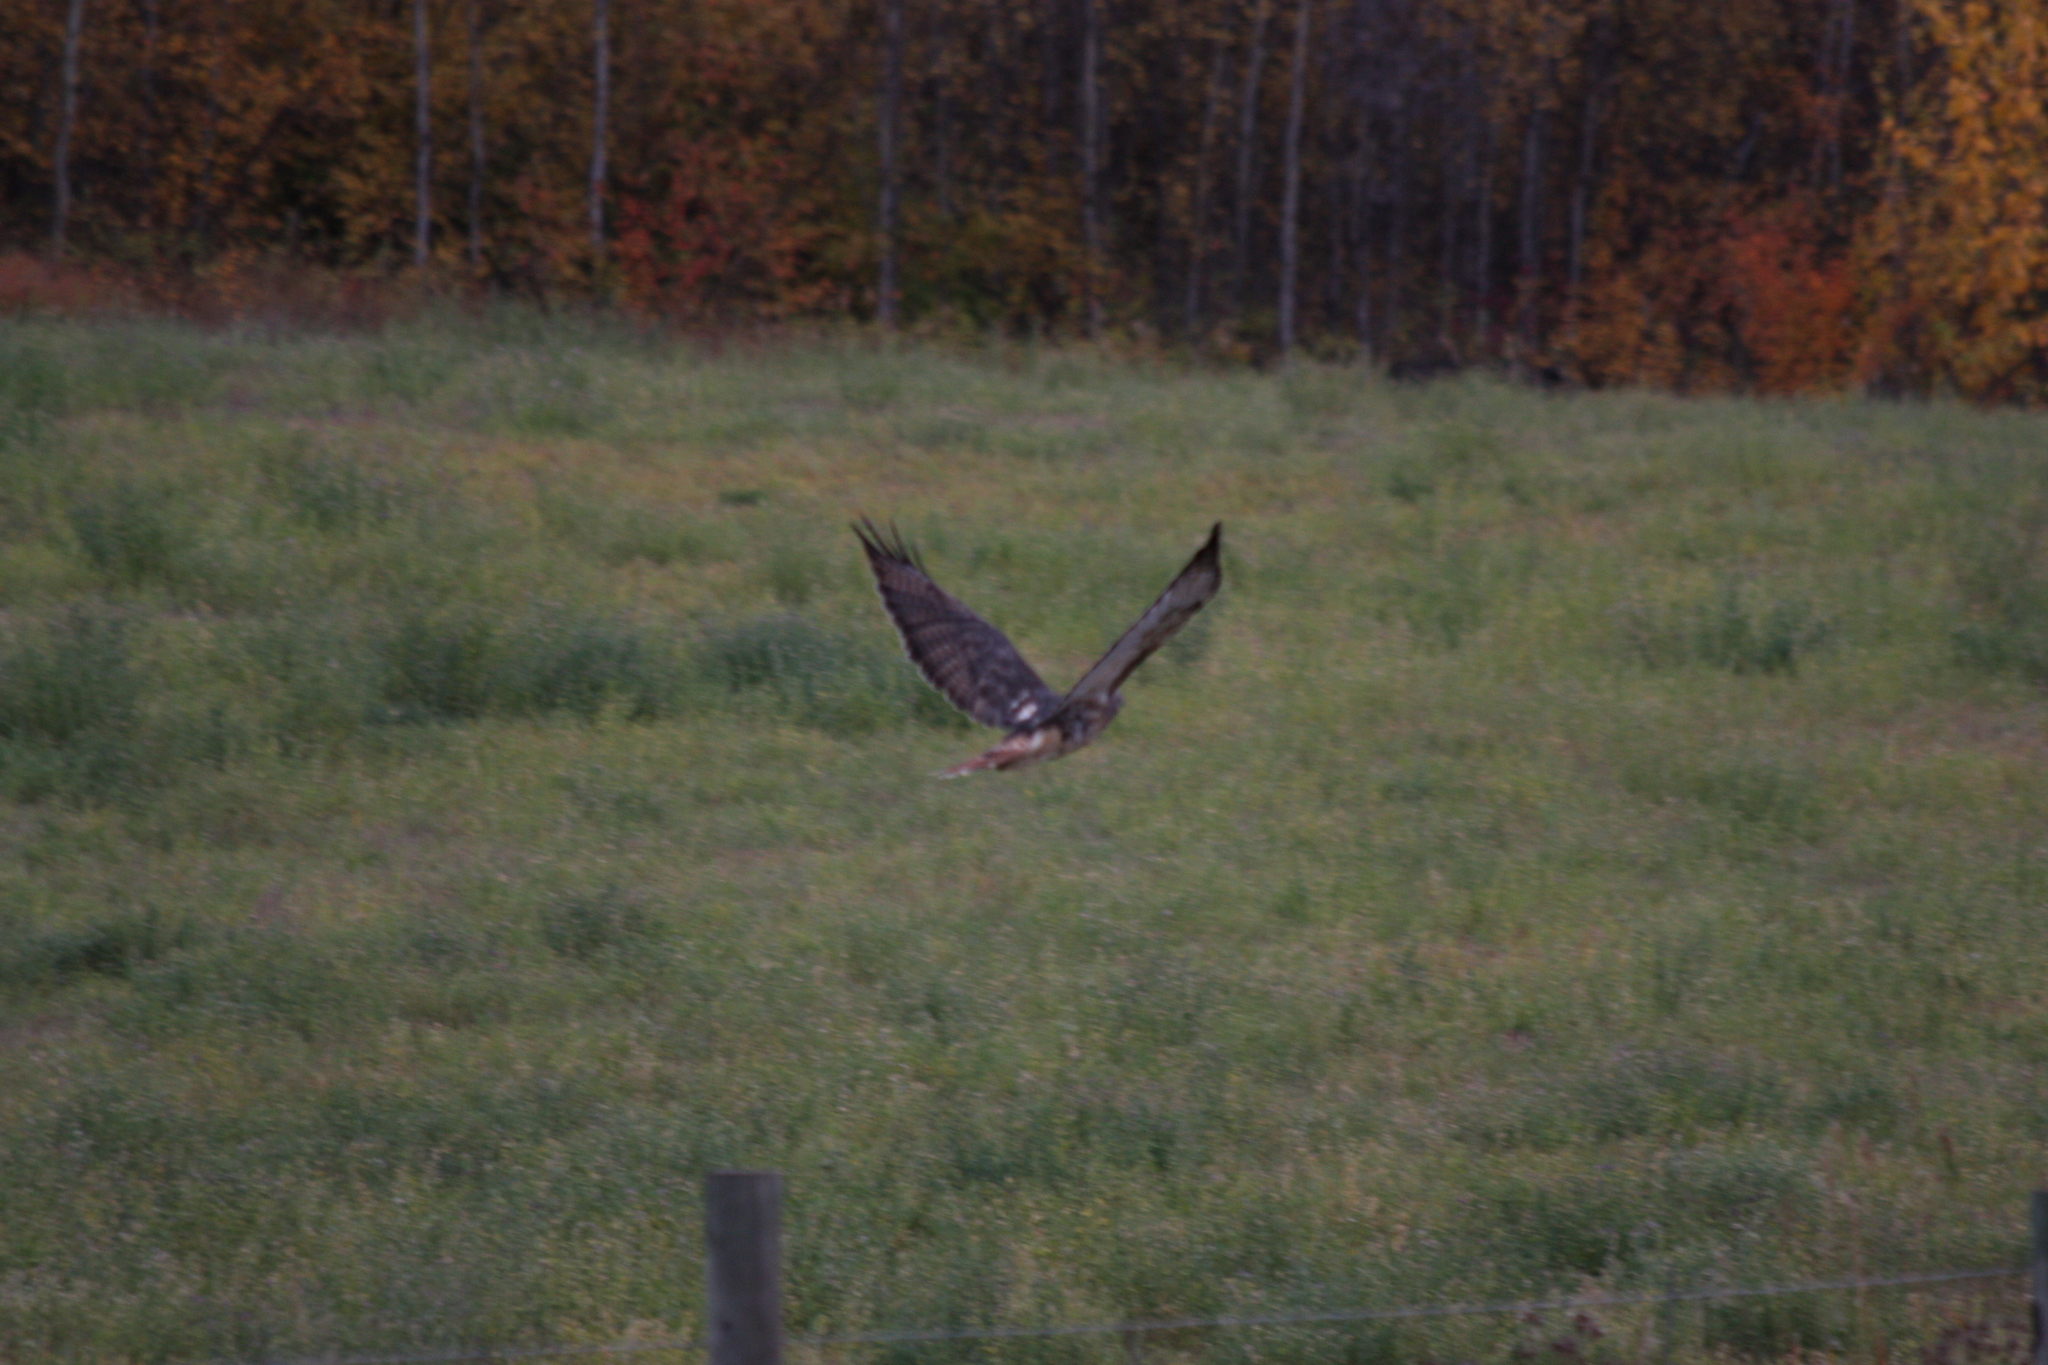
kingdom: Animalia
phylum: Chordata
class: Aves
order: Accipitriformes
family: Accipitridae
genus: Buteo
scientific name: Buteo jamaicensis
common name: Red-tailed hawk
